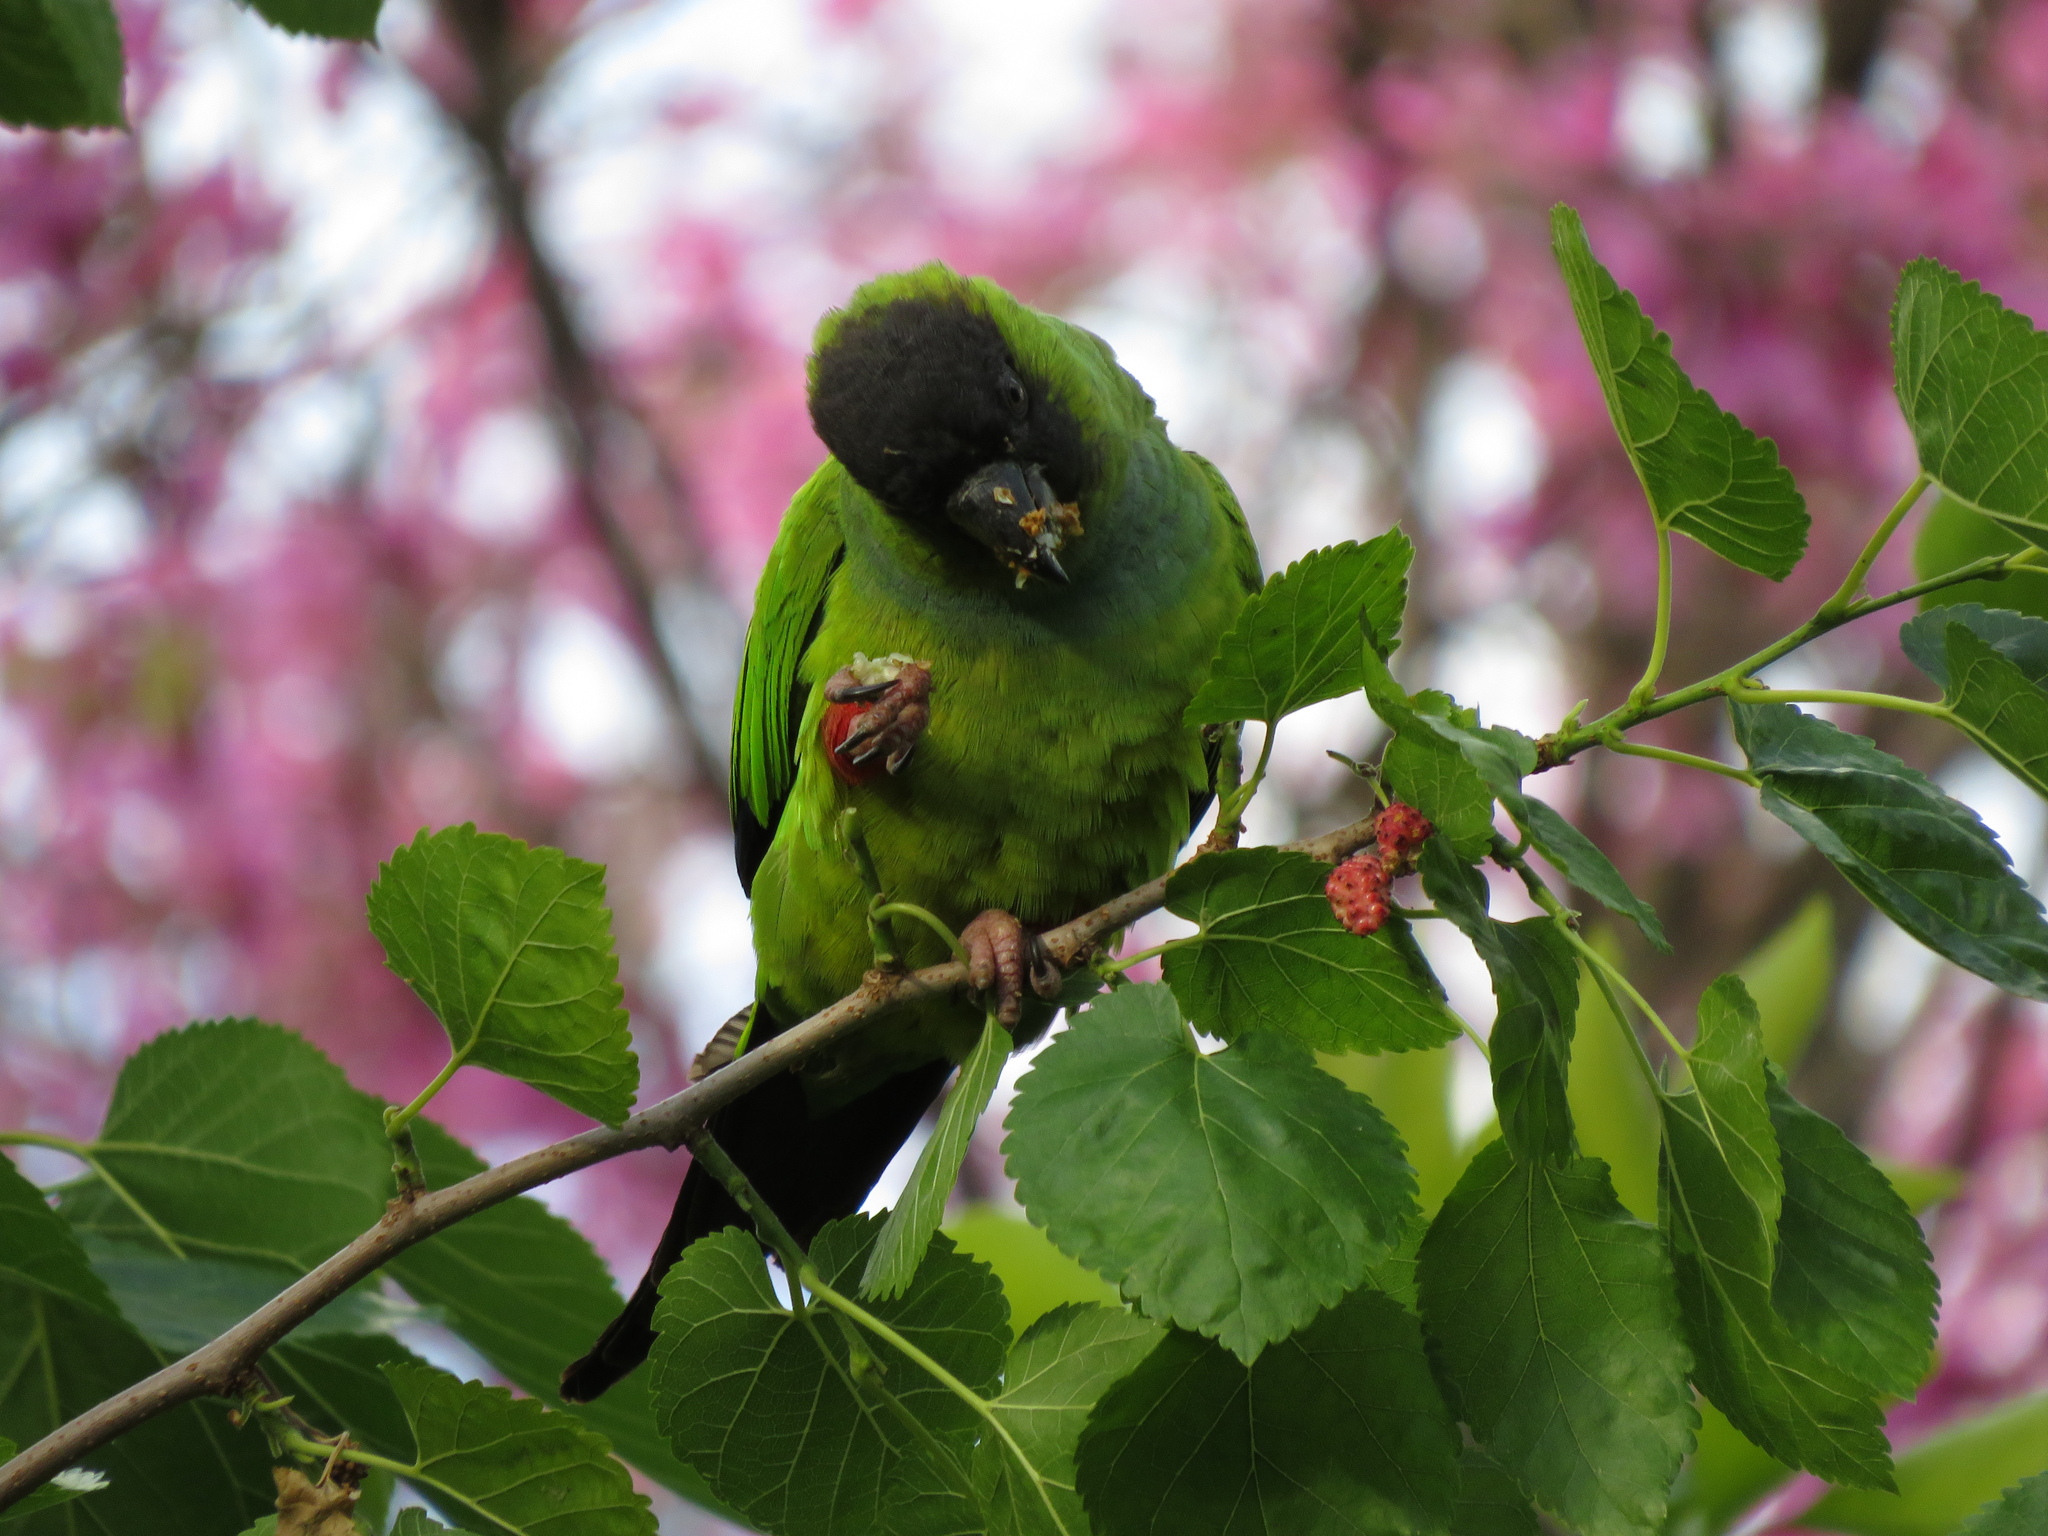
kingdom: Animalia
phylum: Chordata
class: Aves
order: Psittaciformes
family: Psittacidae
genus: Nandayus
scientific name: Nandayus nenday
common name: Nanday parakeet
